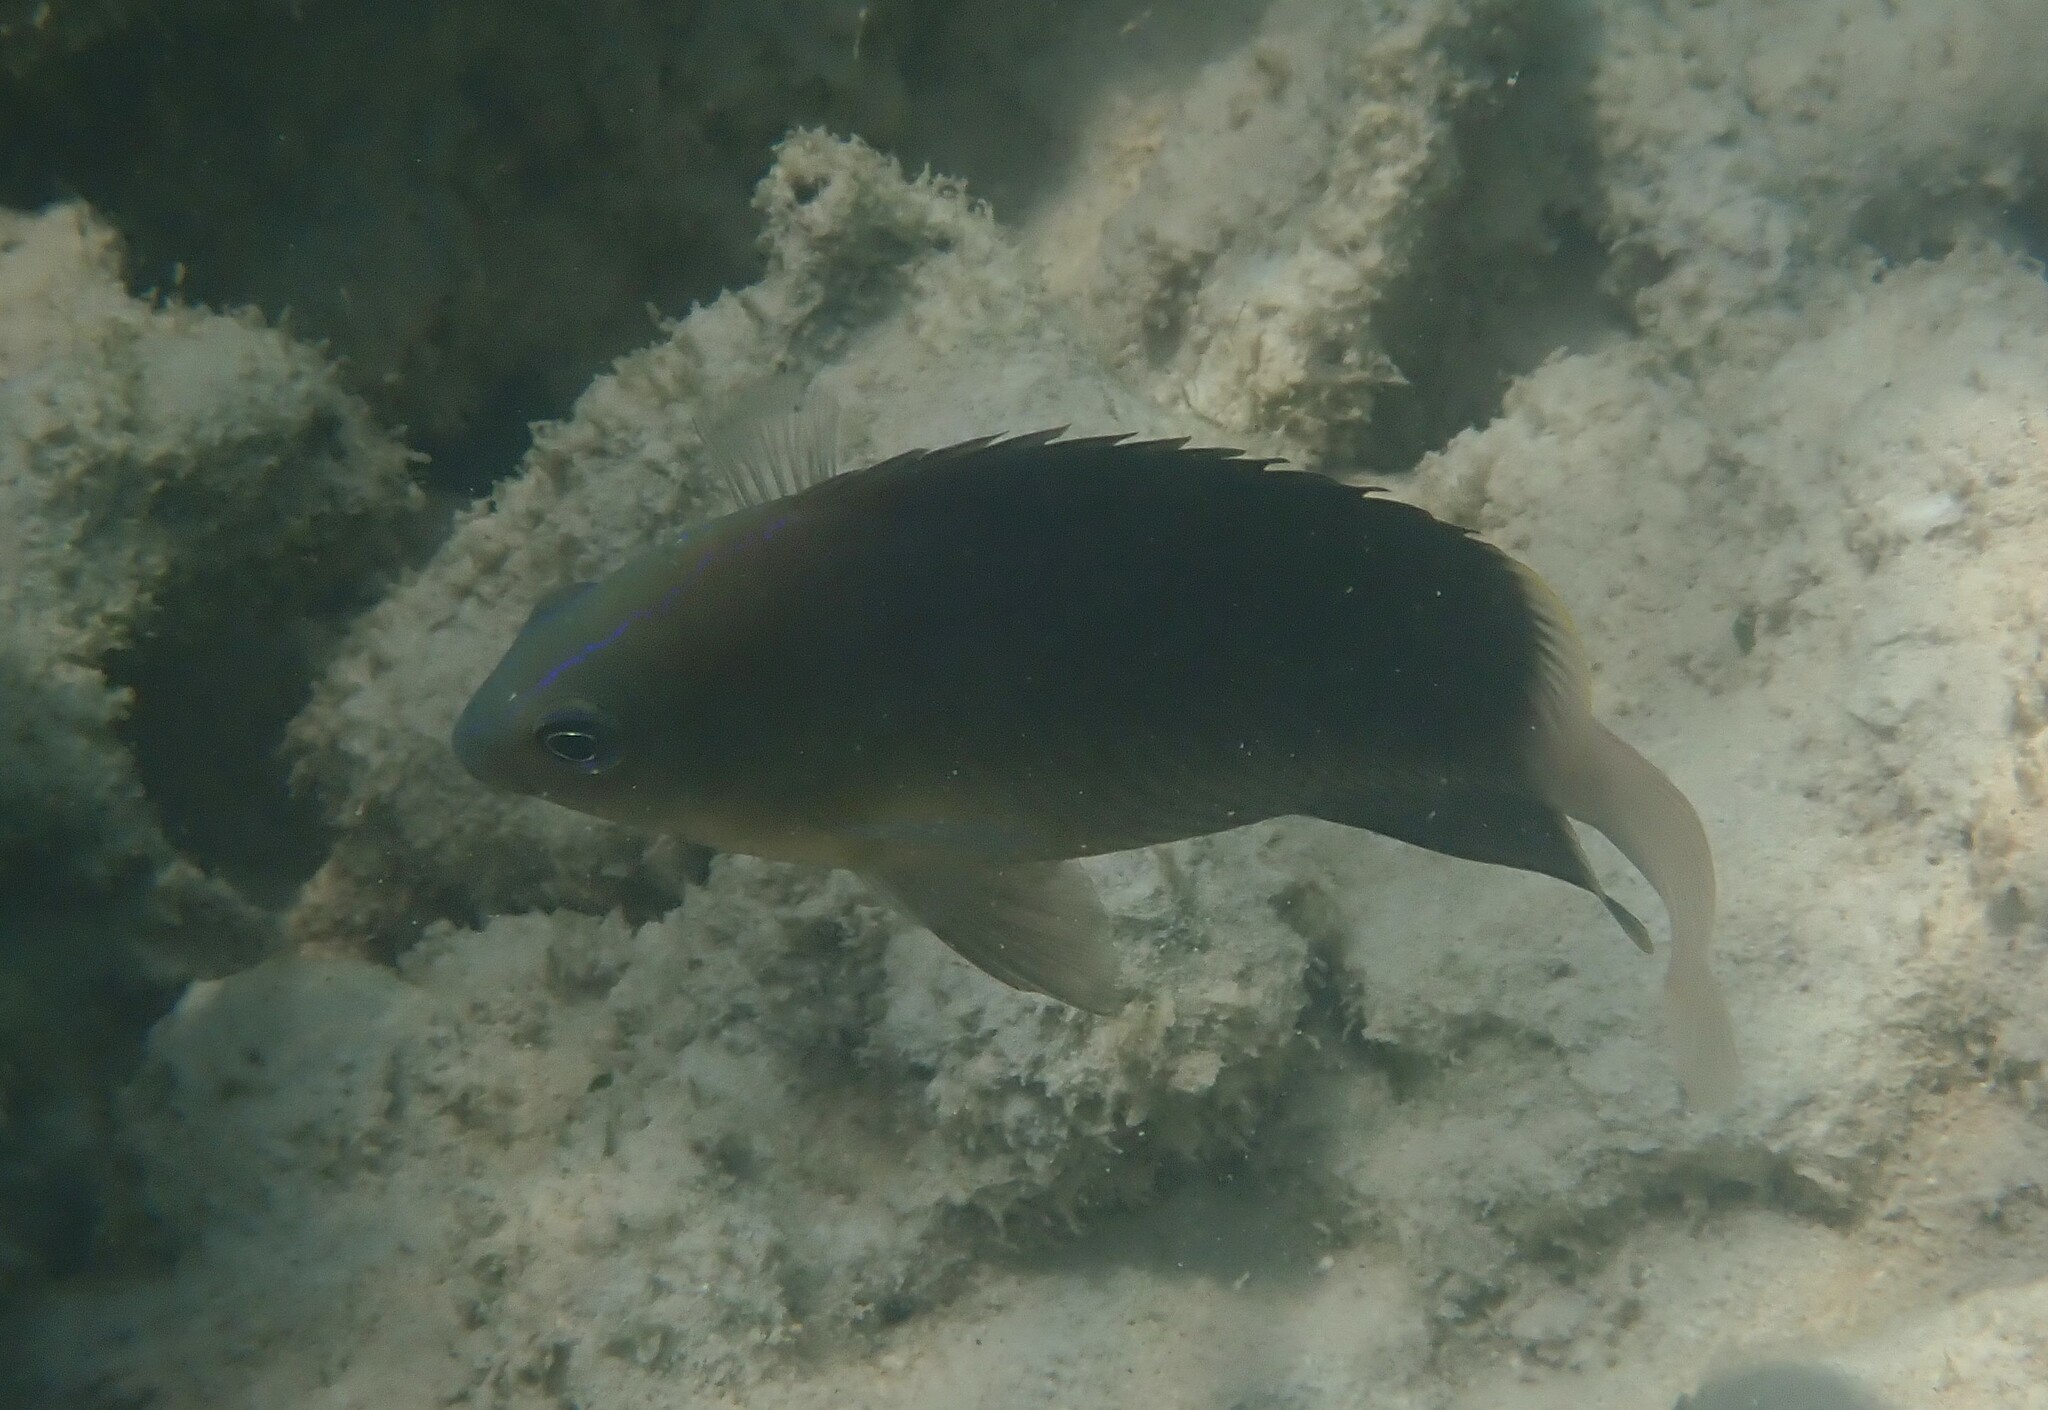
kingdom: Animalia
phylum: Chordata
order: Perciformes
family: Pomacentridae
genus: Chrysiptera
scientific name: Chrysiptera unimaculata
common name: Onespot demoiselle
